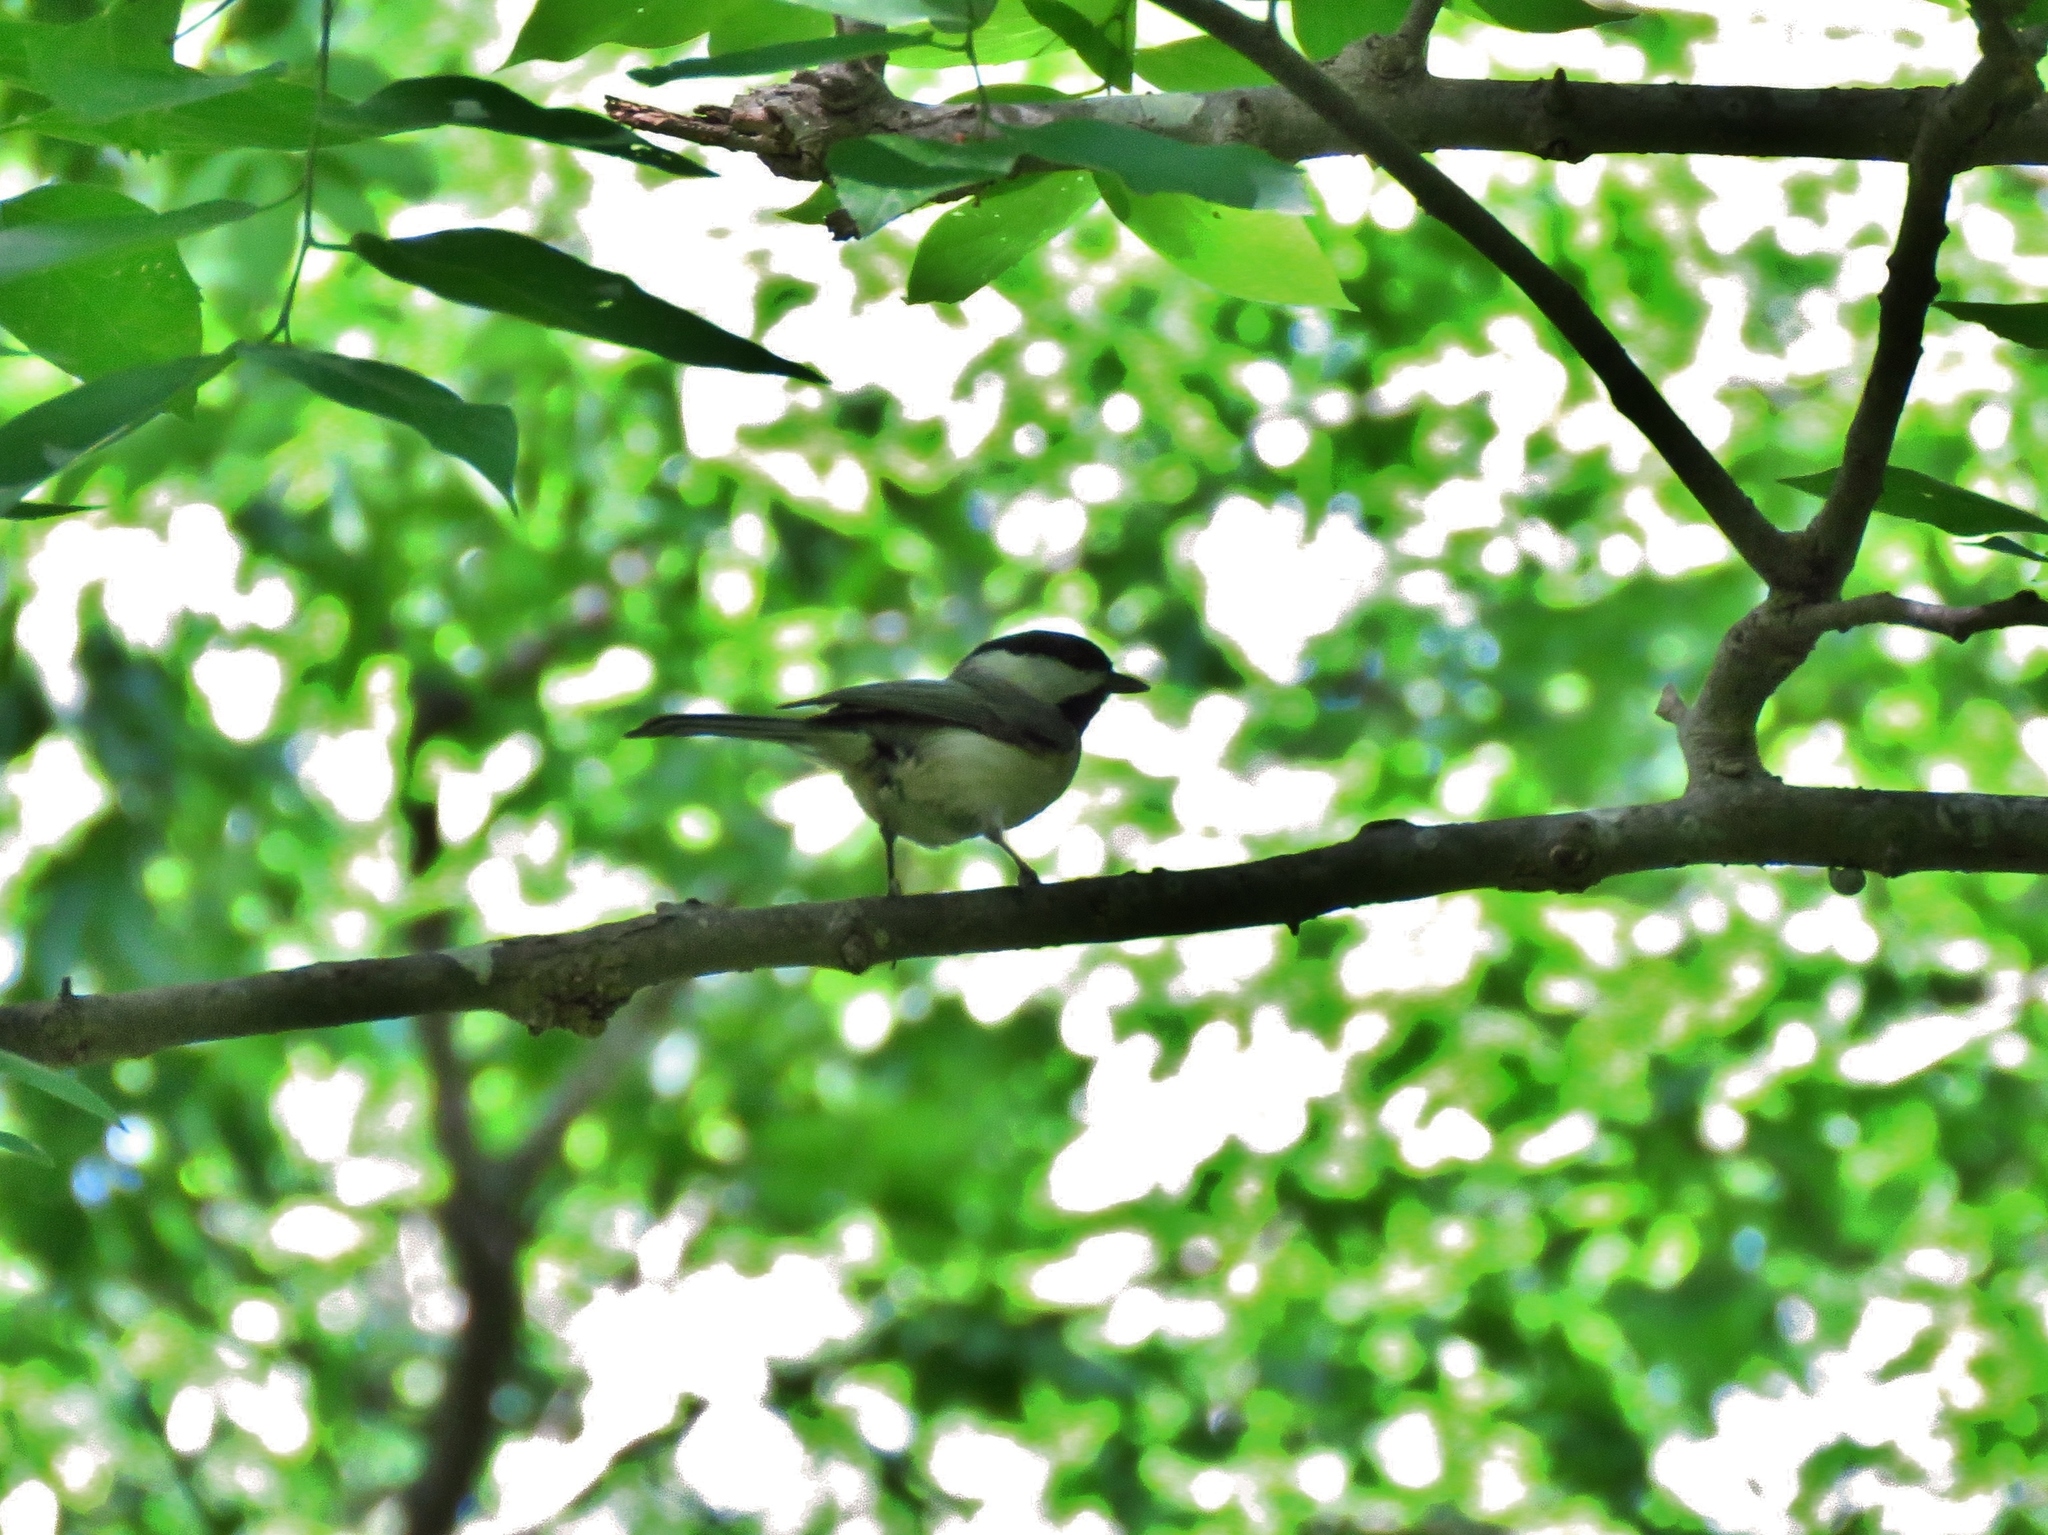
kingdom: Animalia
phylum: Chordata
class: Aves
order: Passeriformes
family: Paridae
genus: Poecile
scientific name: Poecile carolinensis
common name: Carolina chickadee
